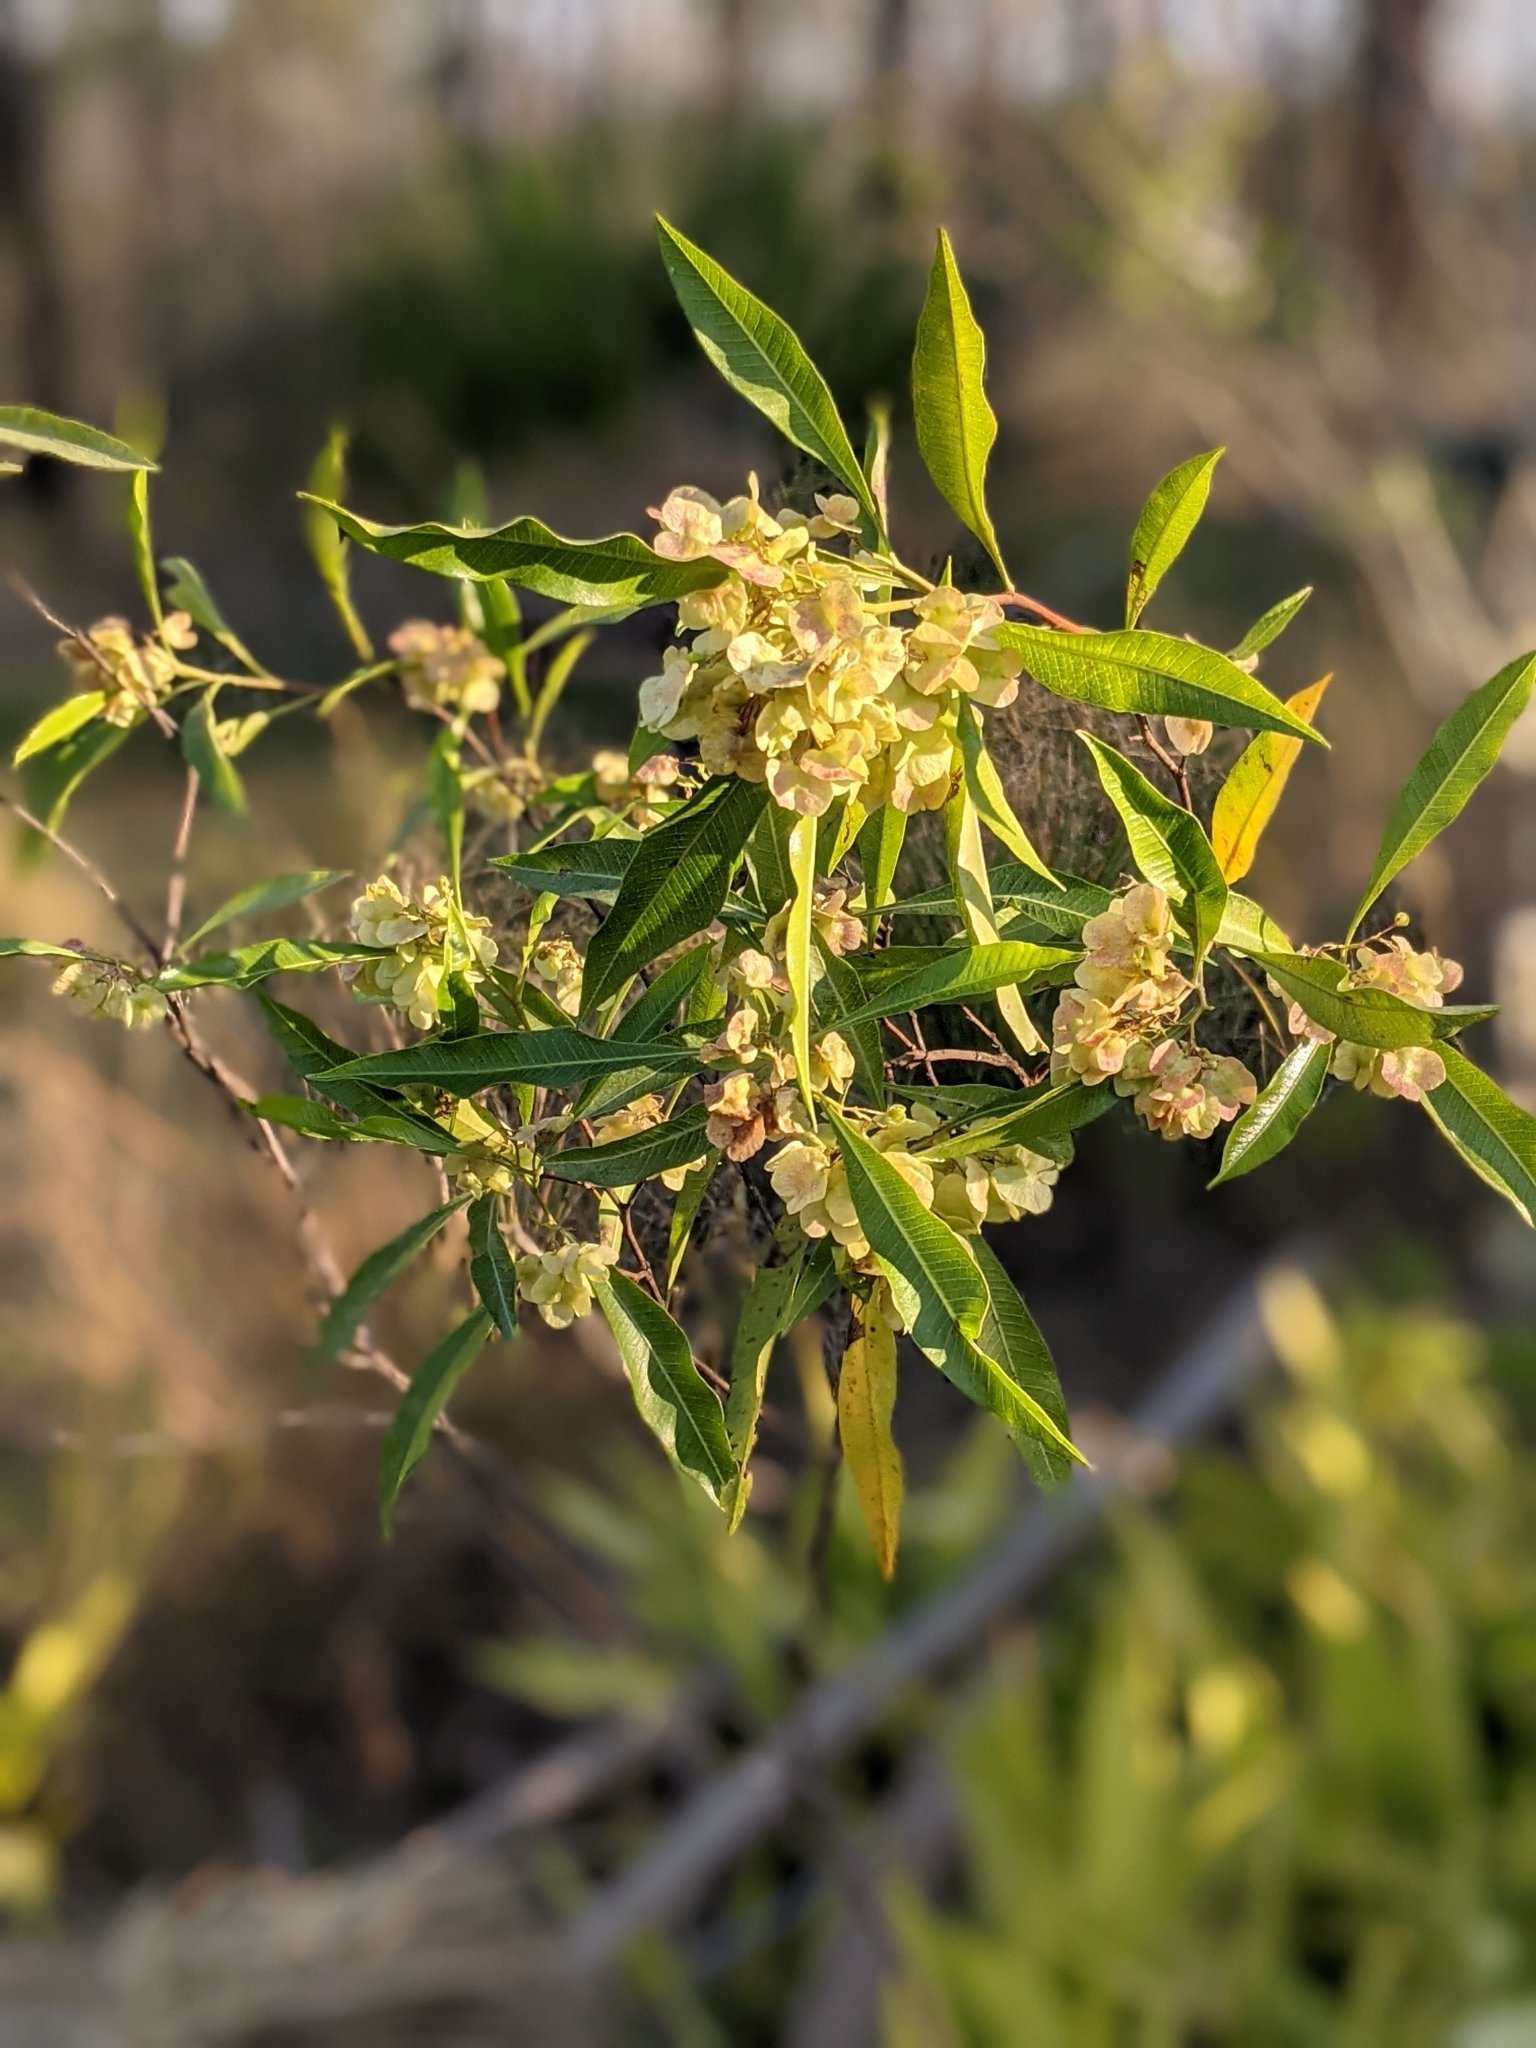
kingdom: Plantae
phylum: Tracheophyta
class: Magnoliopsida
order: Sapindales
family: Sapindaceae
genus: Dodonaea
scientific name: Dodonaea viscosa
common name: Hopbush
